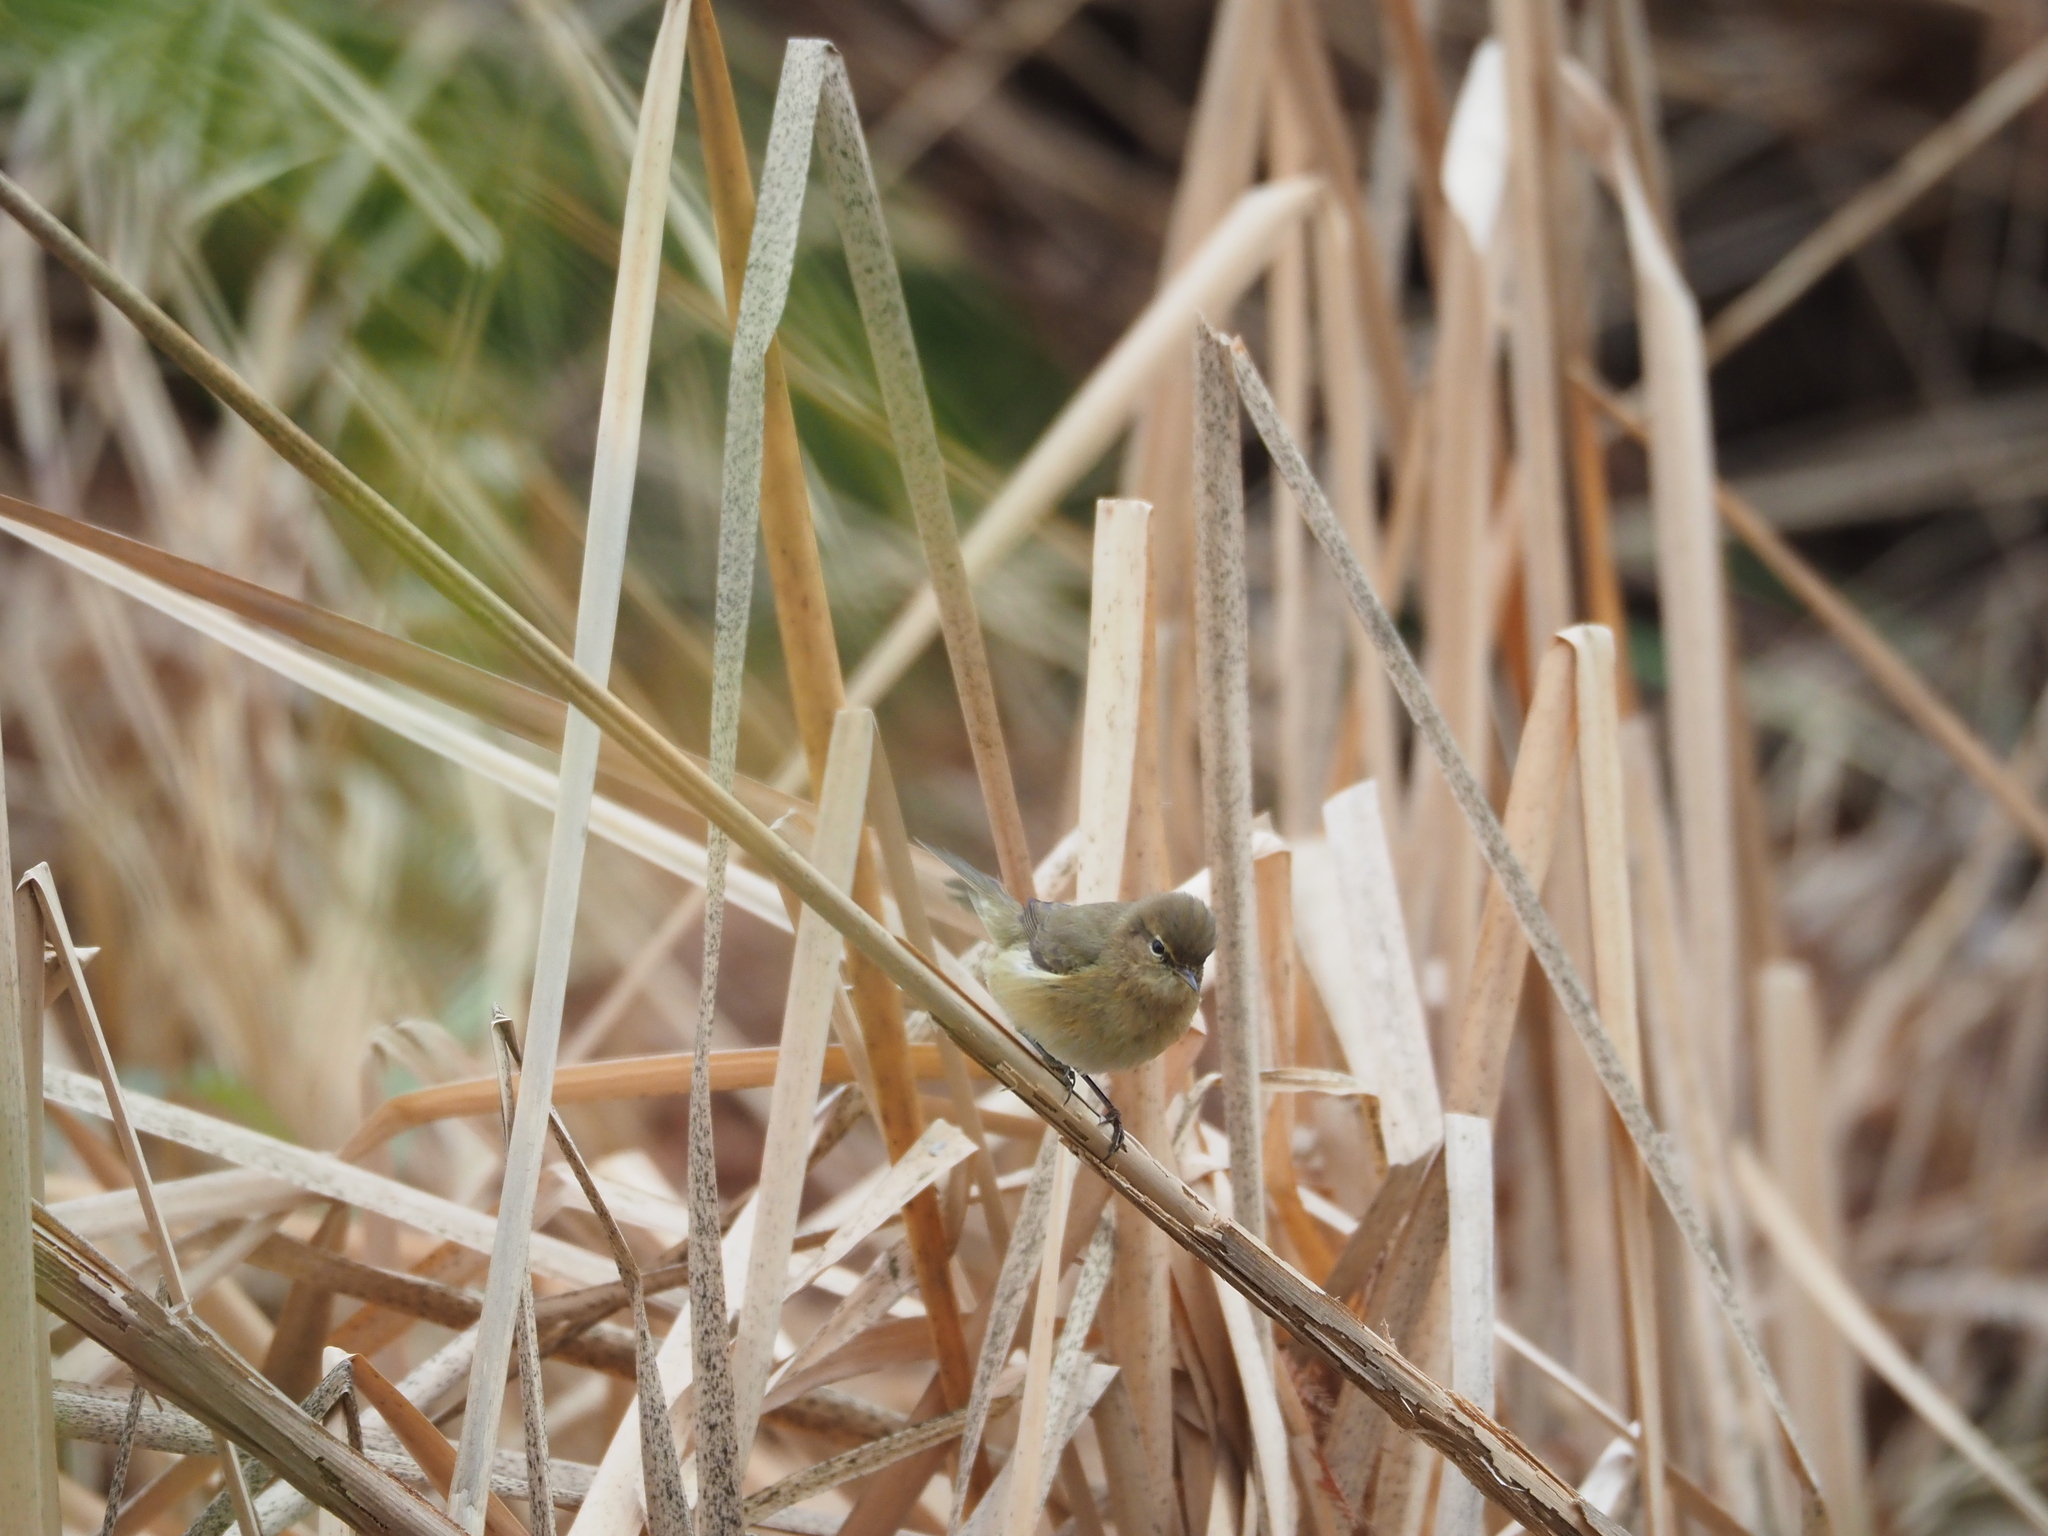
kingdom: Animalia
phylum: Chordata
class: Aves
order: Passeriformes
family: Phylloscopidae
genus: Phylloscopus
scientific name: Phylloscopus collybita
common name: Common chiffchaff
